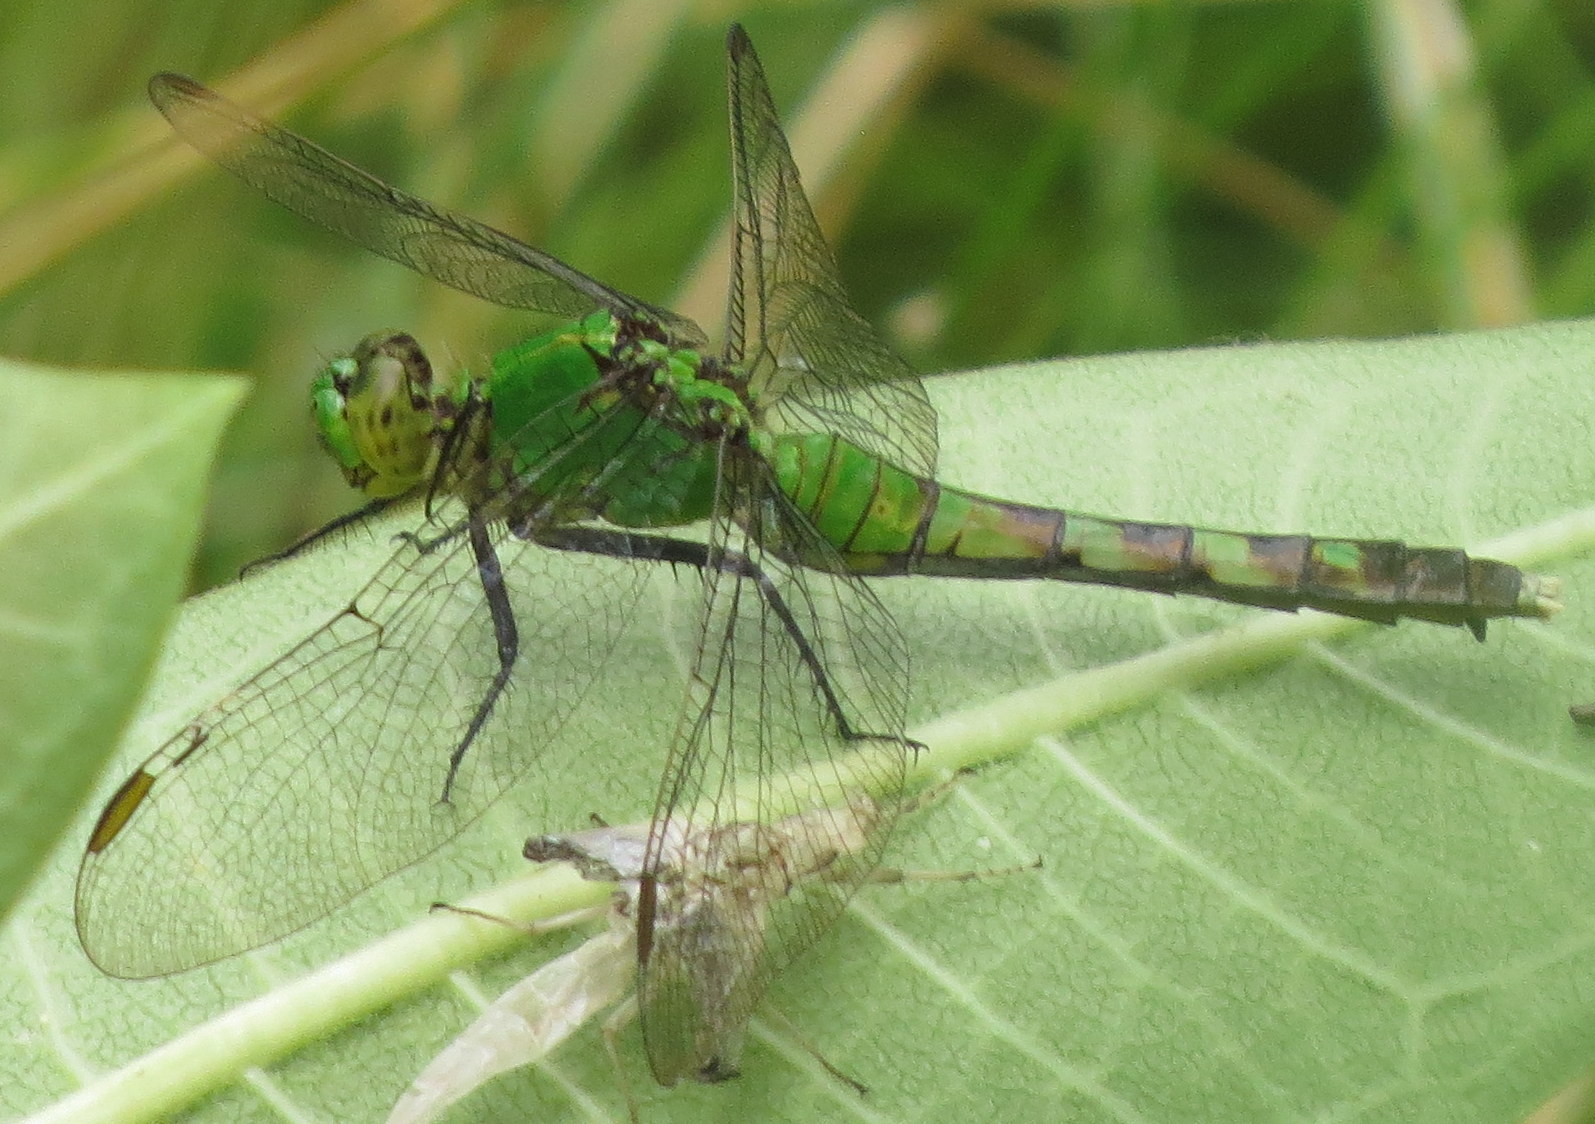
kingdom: Animalia
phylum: Arthropoda
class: Insecta
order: Odonata
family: Libellulidae
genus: Erythemis
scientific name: Erythemis simplicicollis
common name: Eastern pondhawk
